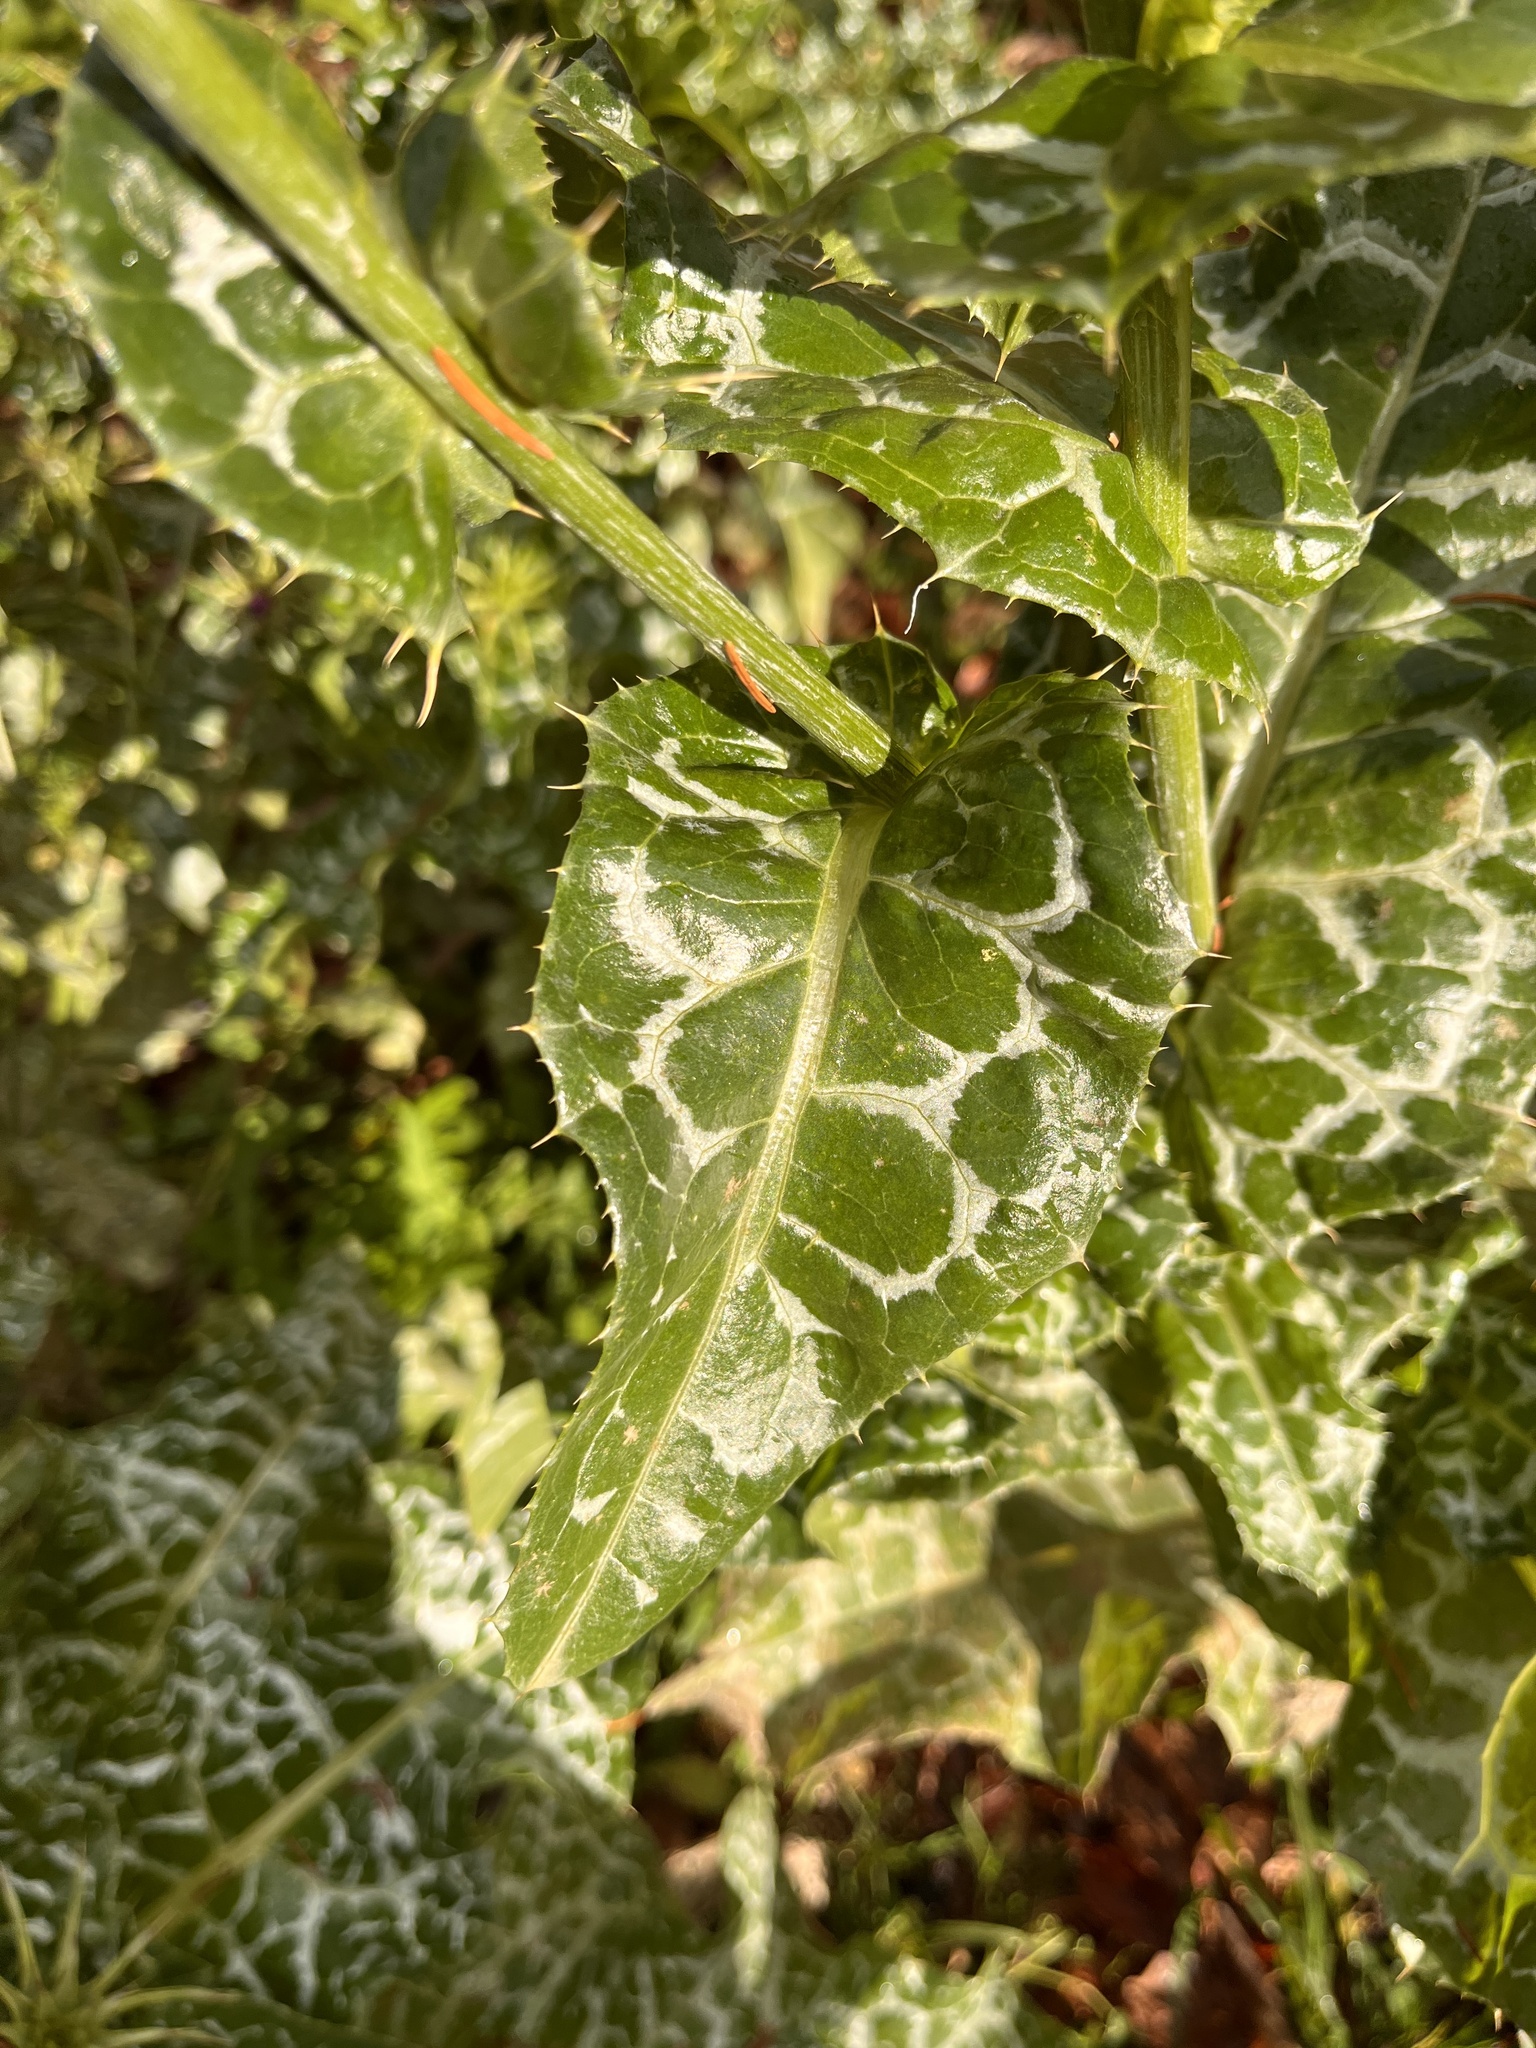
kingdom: Plantae
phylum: Tracheophyta
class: Magnoliopsida
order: Asterales
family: Asteraceae
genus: Silybum
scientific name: Silybum marianum
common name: Milk thistle
